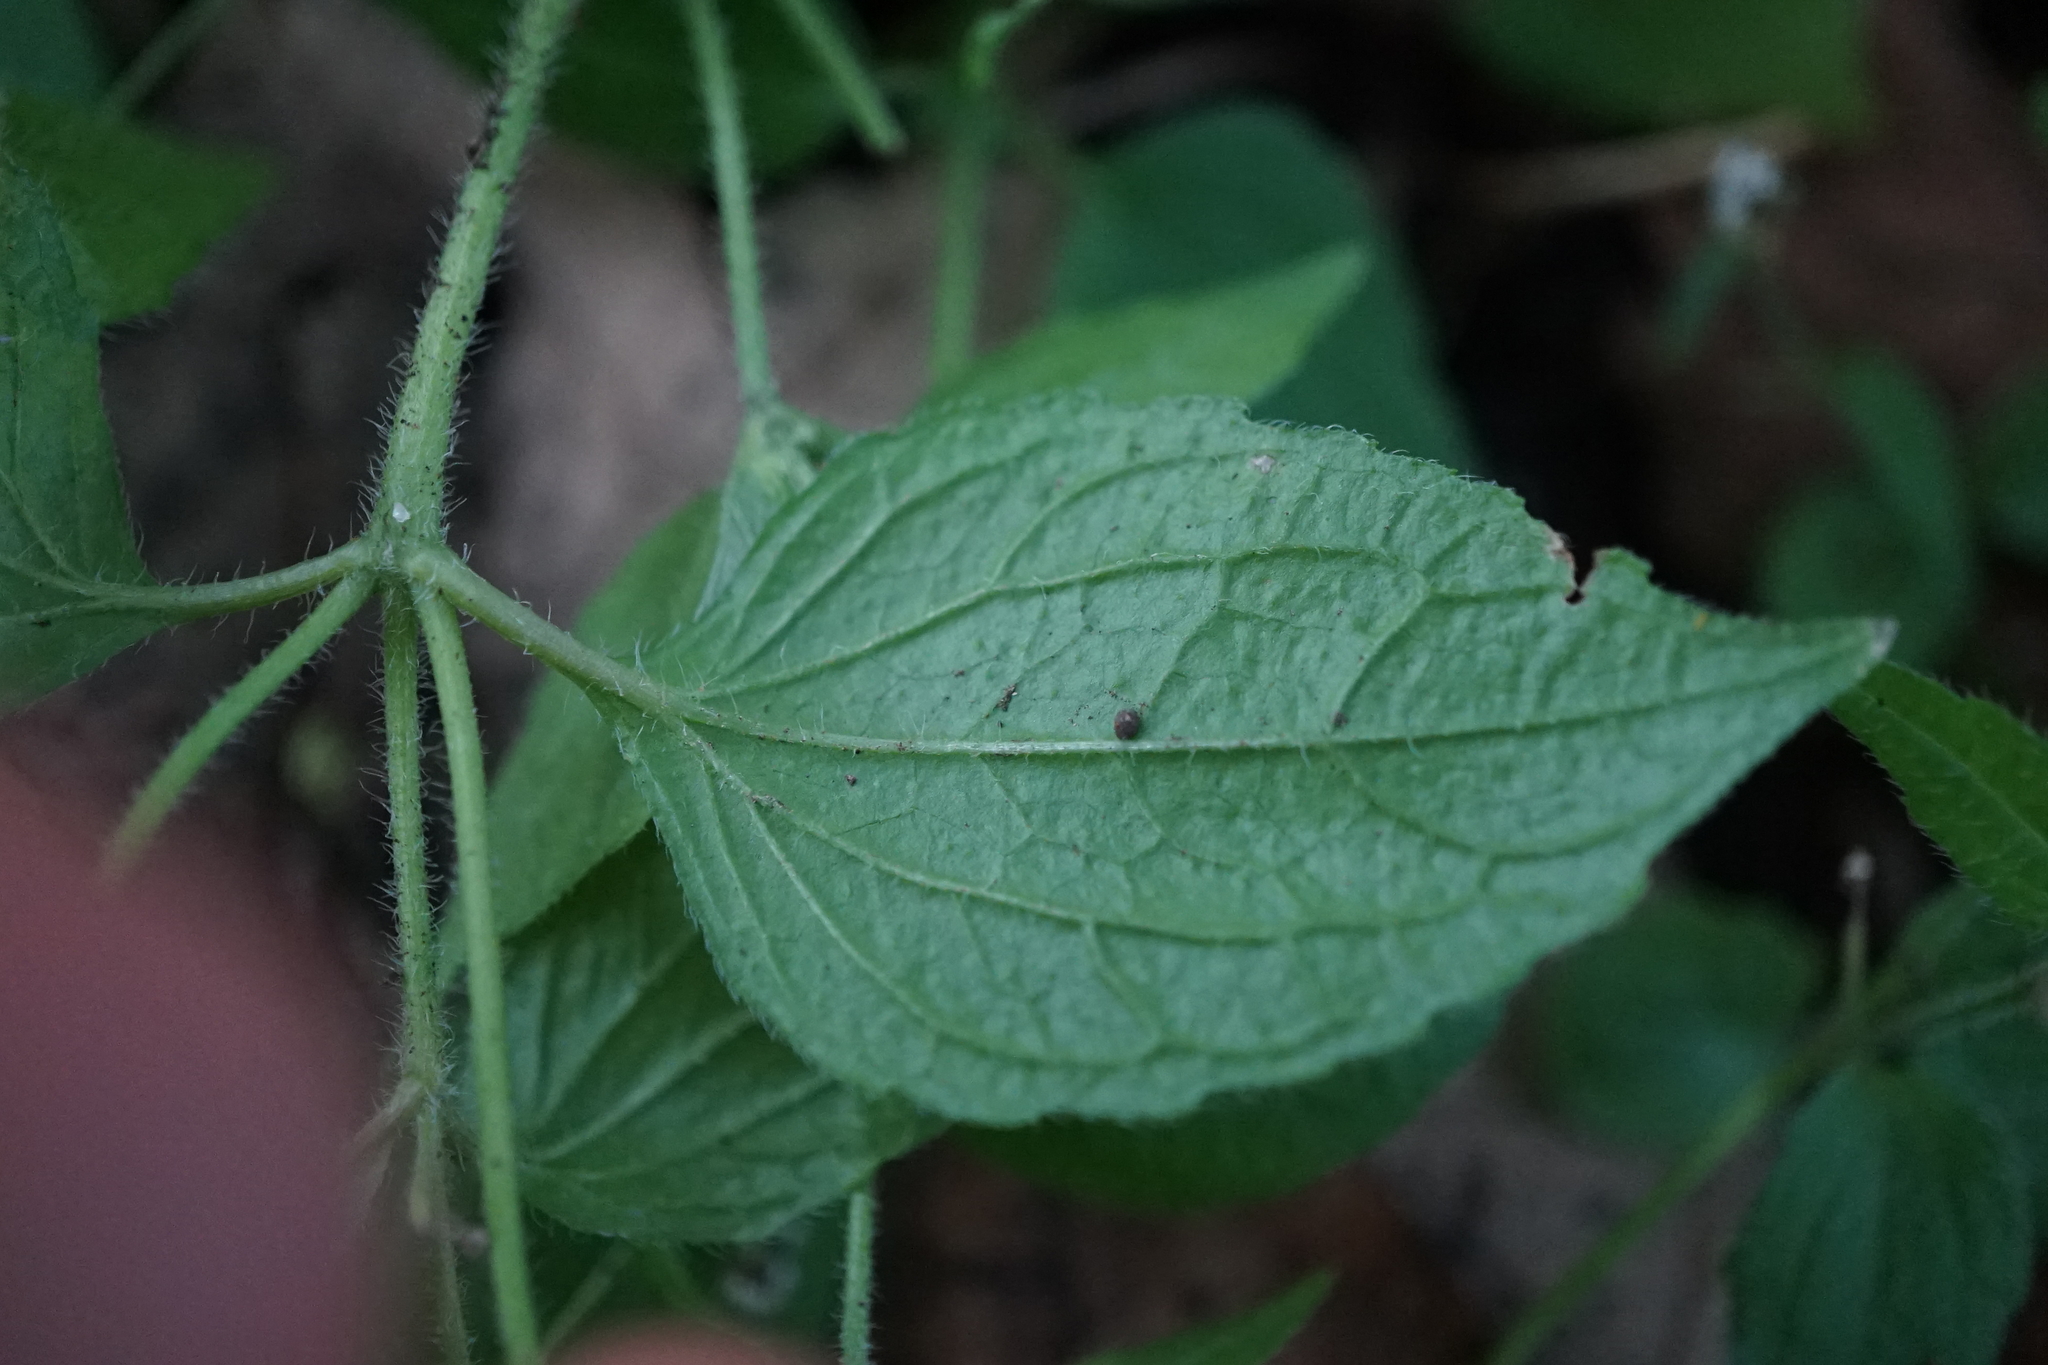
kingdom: Plantae
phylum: Tracheophyta
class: Magnoliopsida
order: Asterales
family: Asteraceae
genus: Galinsoga
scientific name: Galinsoga quadriradiata
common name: Shaggy soldier
